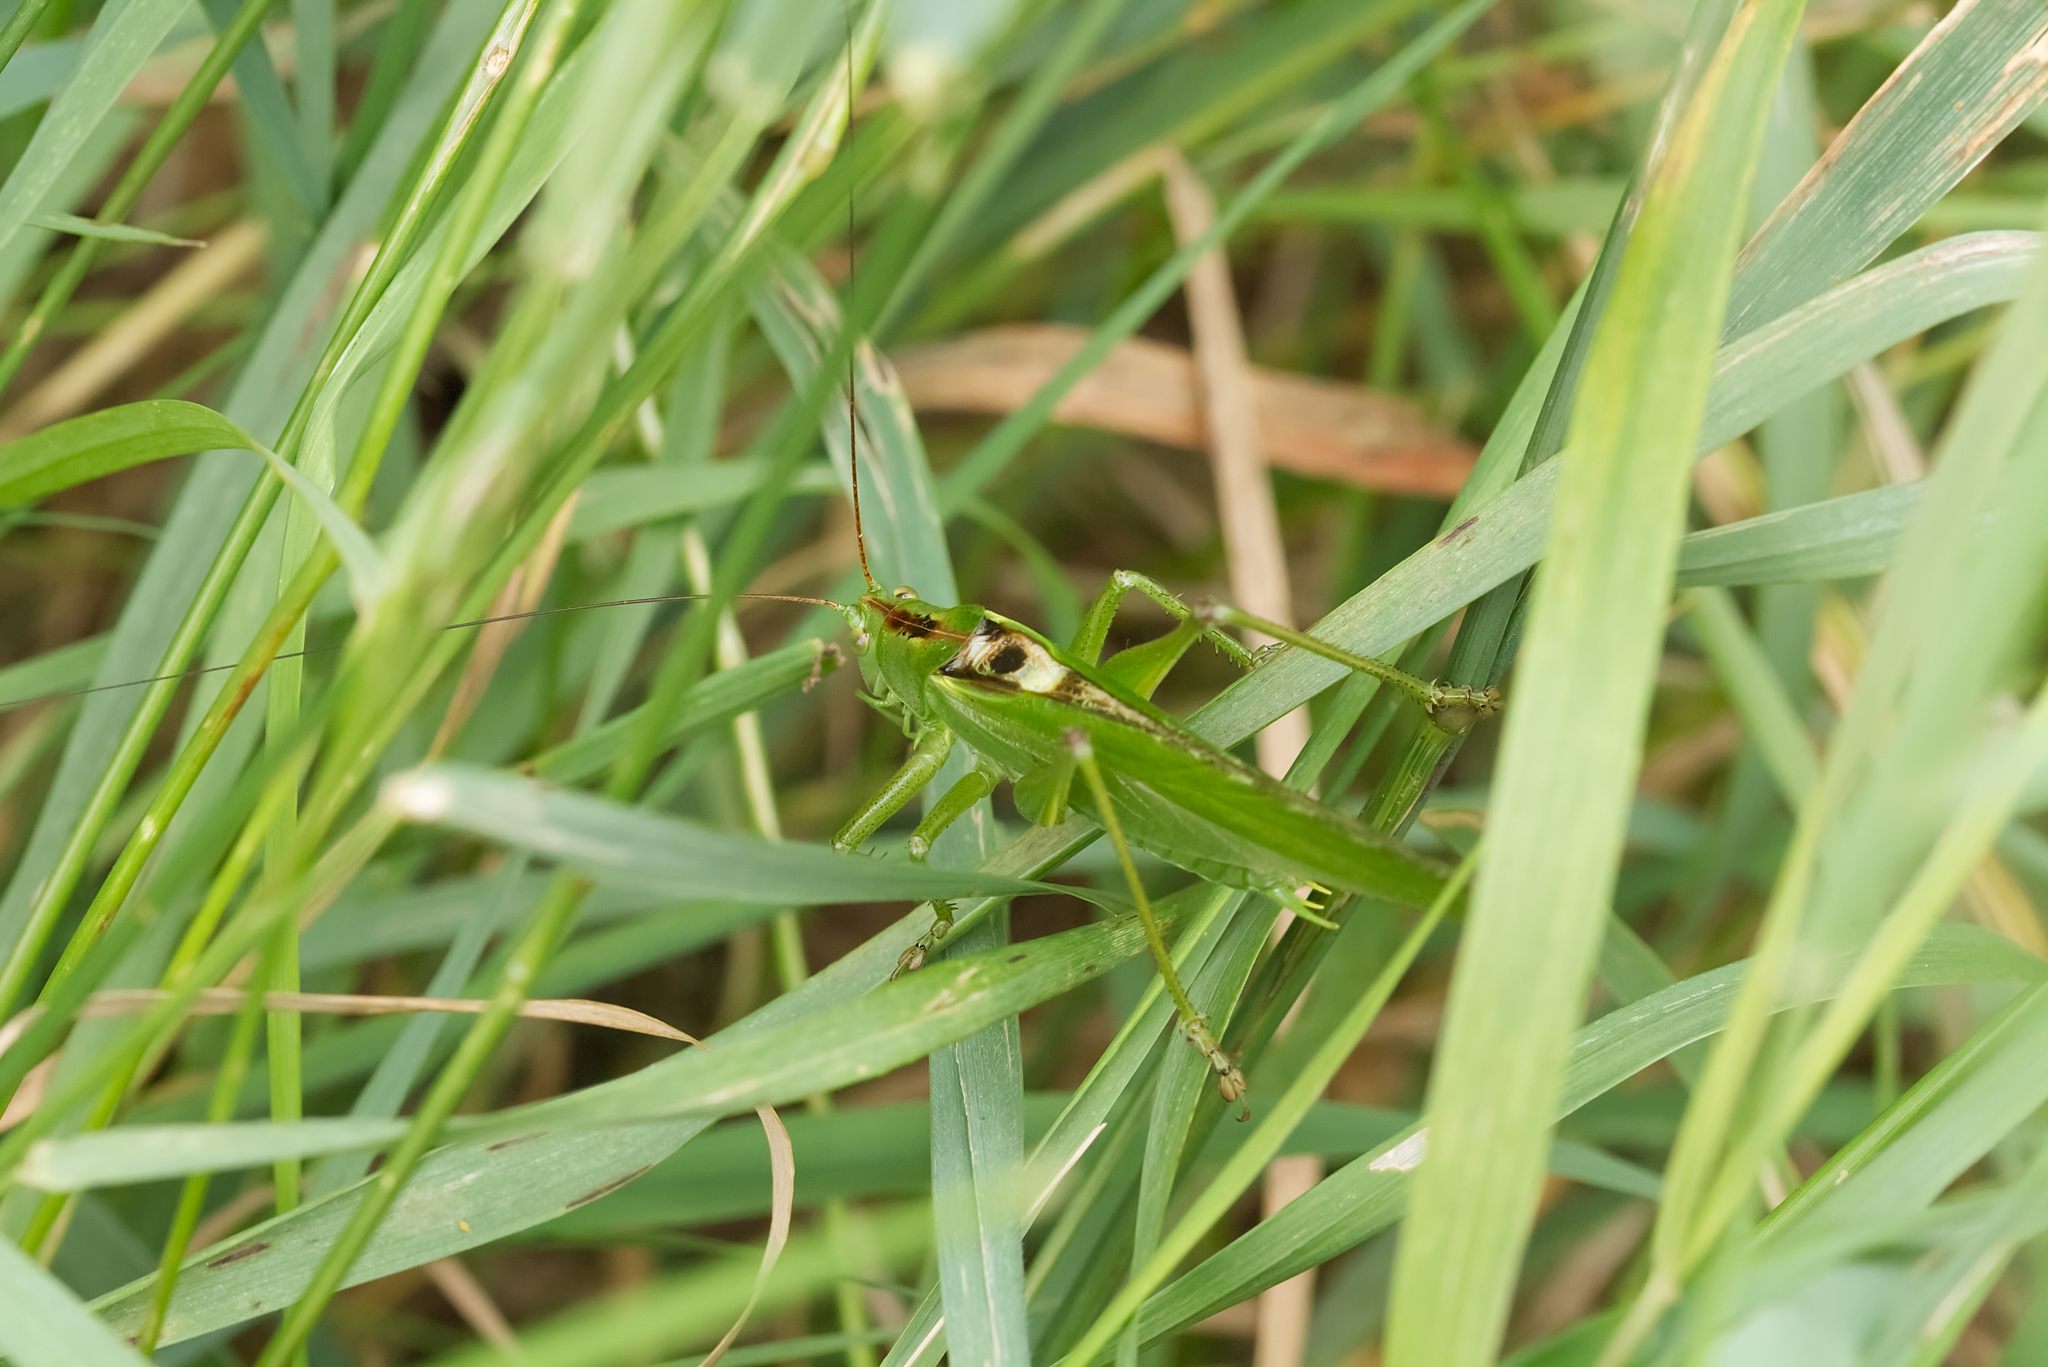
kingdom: Animalia
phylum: Arthropoda
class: Insecta
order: Orthoptera
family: Tettigoniidae
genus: Tettigonia
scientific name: Tettigonia viridissima
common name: Great green bush-cricket
